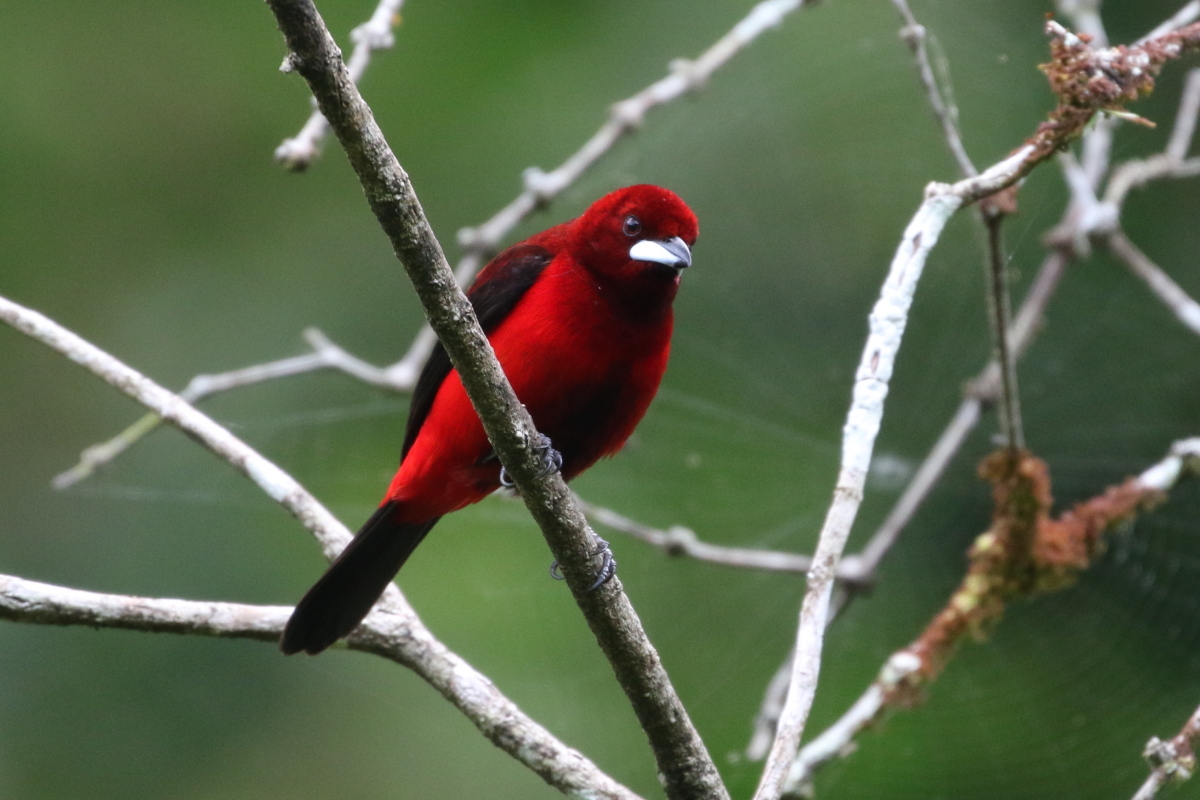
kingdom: Animalia
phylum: Chordata
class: Aves
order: Passeriformes
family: Thraupidae
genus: Ramphocelus
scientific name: Ramphocelus dimidiatus
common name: Crimson-backed tanager
